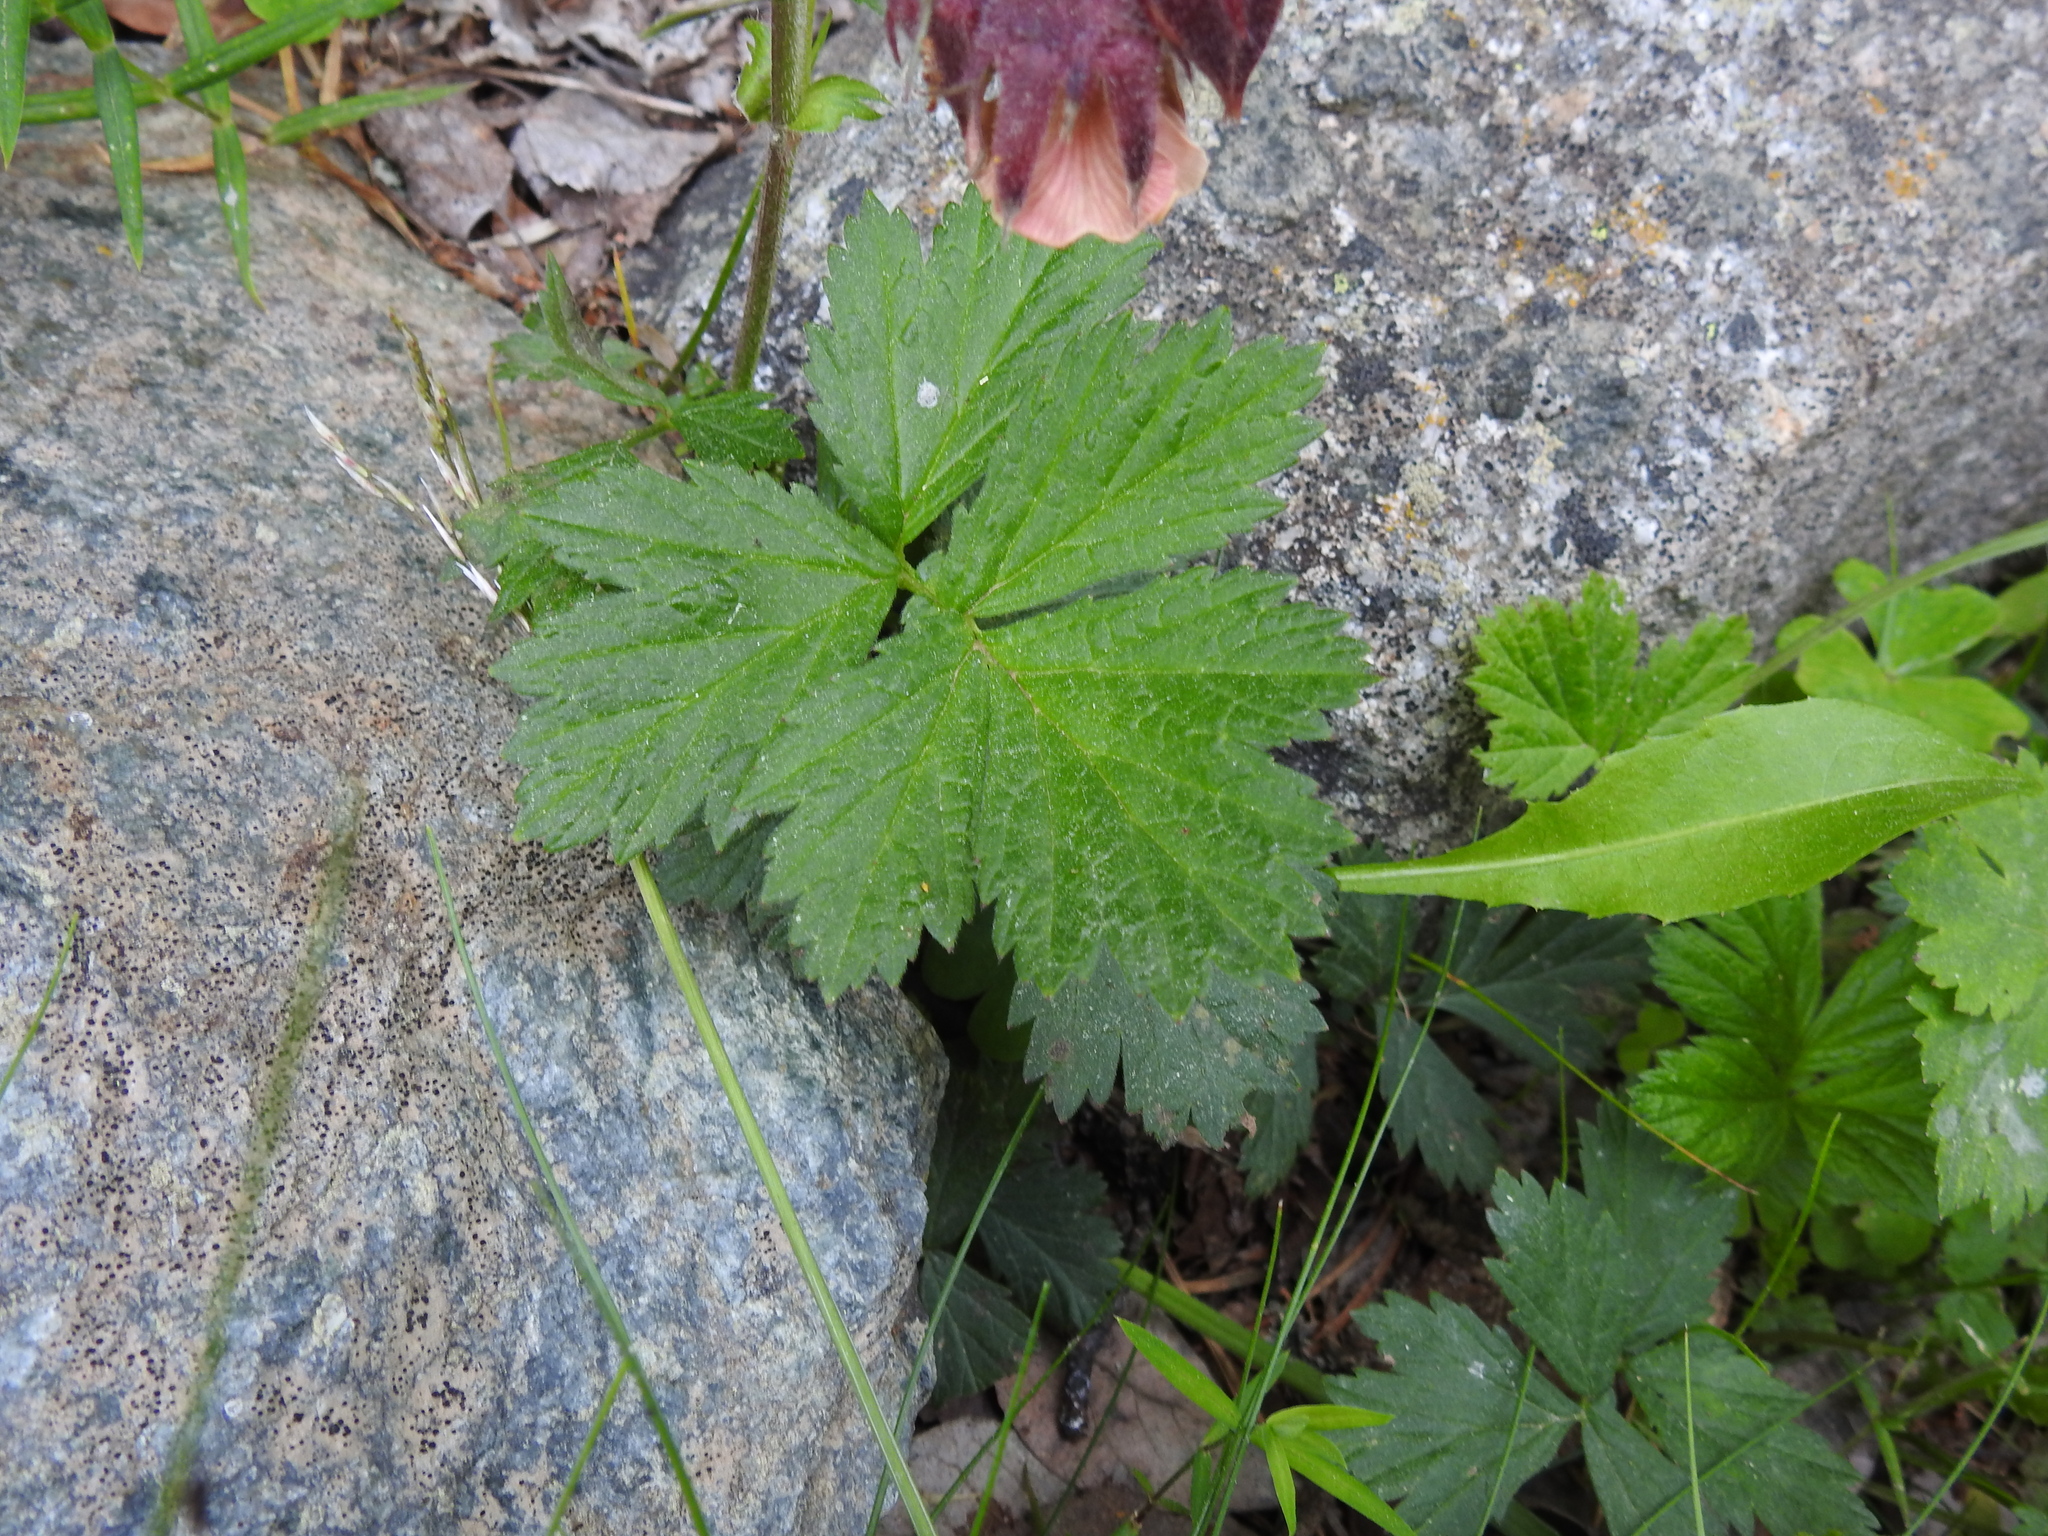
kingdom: Plantae
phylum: Tracheophyta
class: Magnoliopsida
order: Rosales
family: Rosaceae
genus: Geum
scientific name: Geum rivale
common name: Water avens
